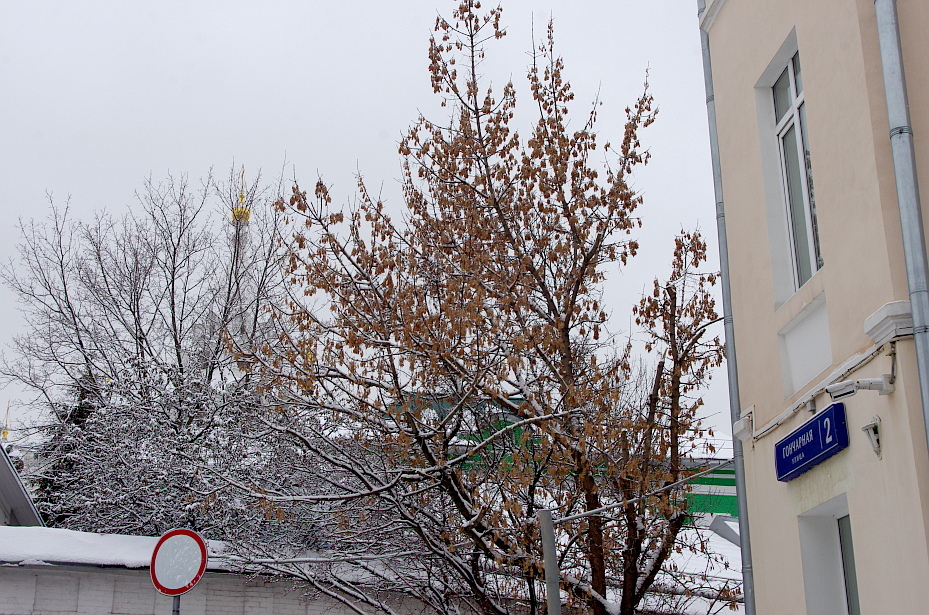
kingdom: Plantae
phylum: Tracheophyta
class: Magnoliopsida
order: Sapindales
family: Sapindaceae
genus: Acer
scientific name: Acer negundo
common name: Ashleaf maple
